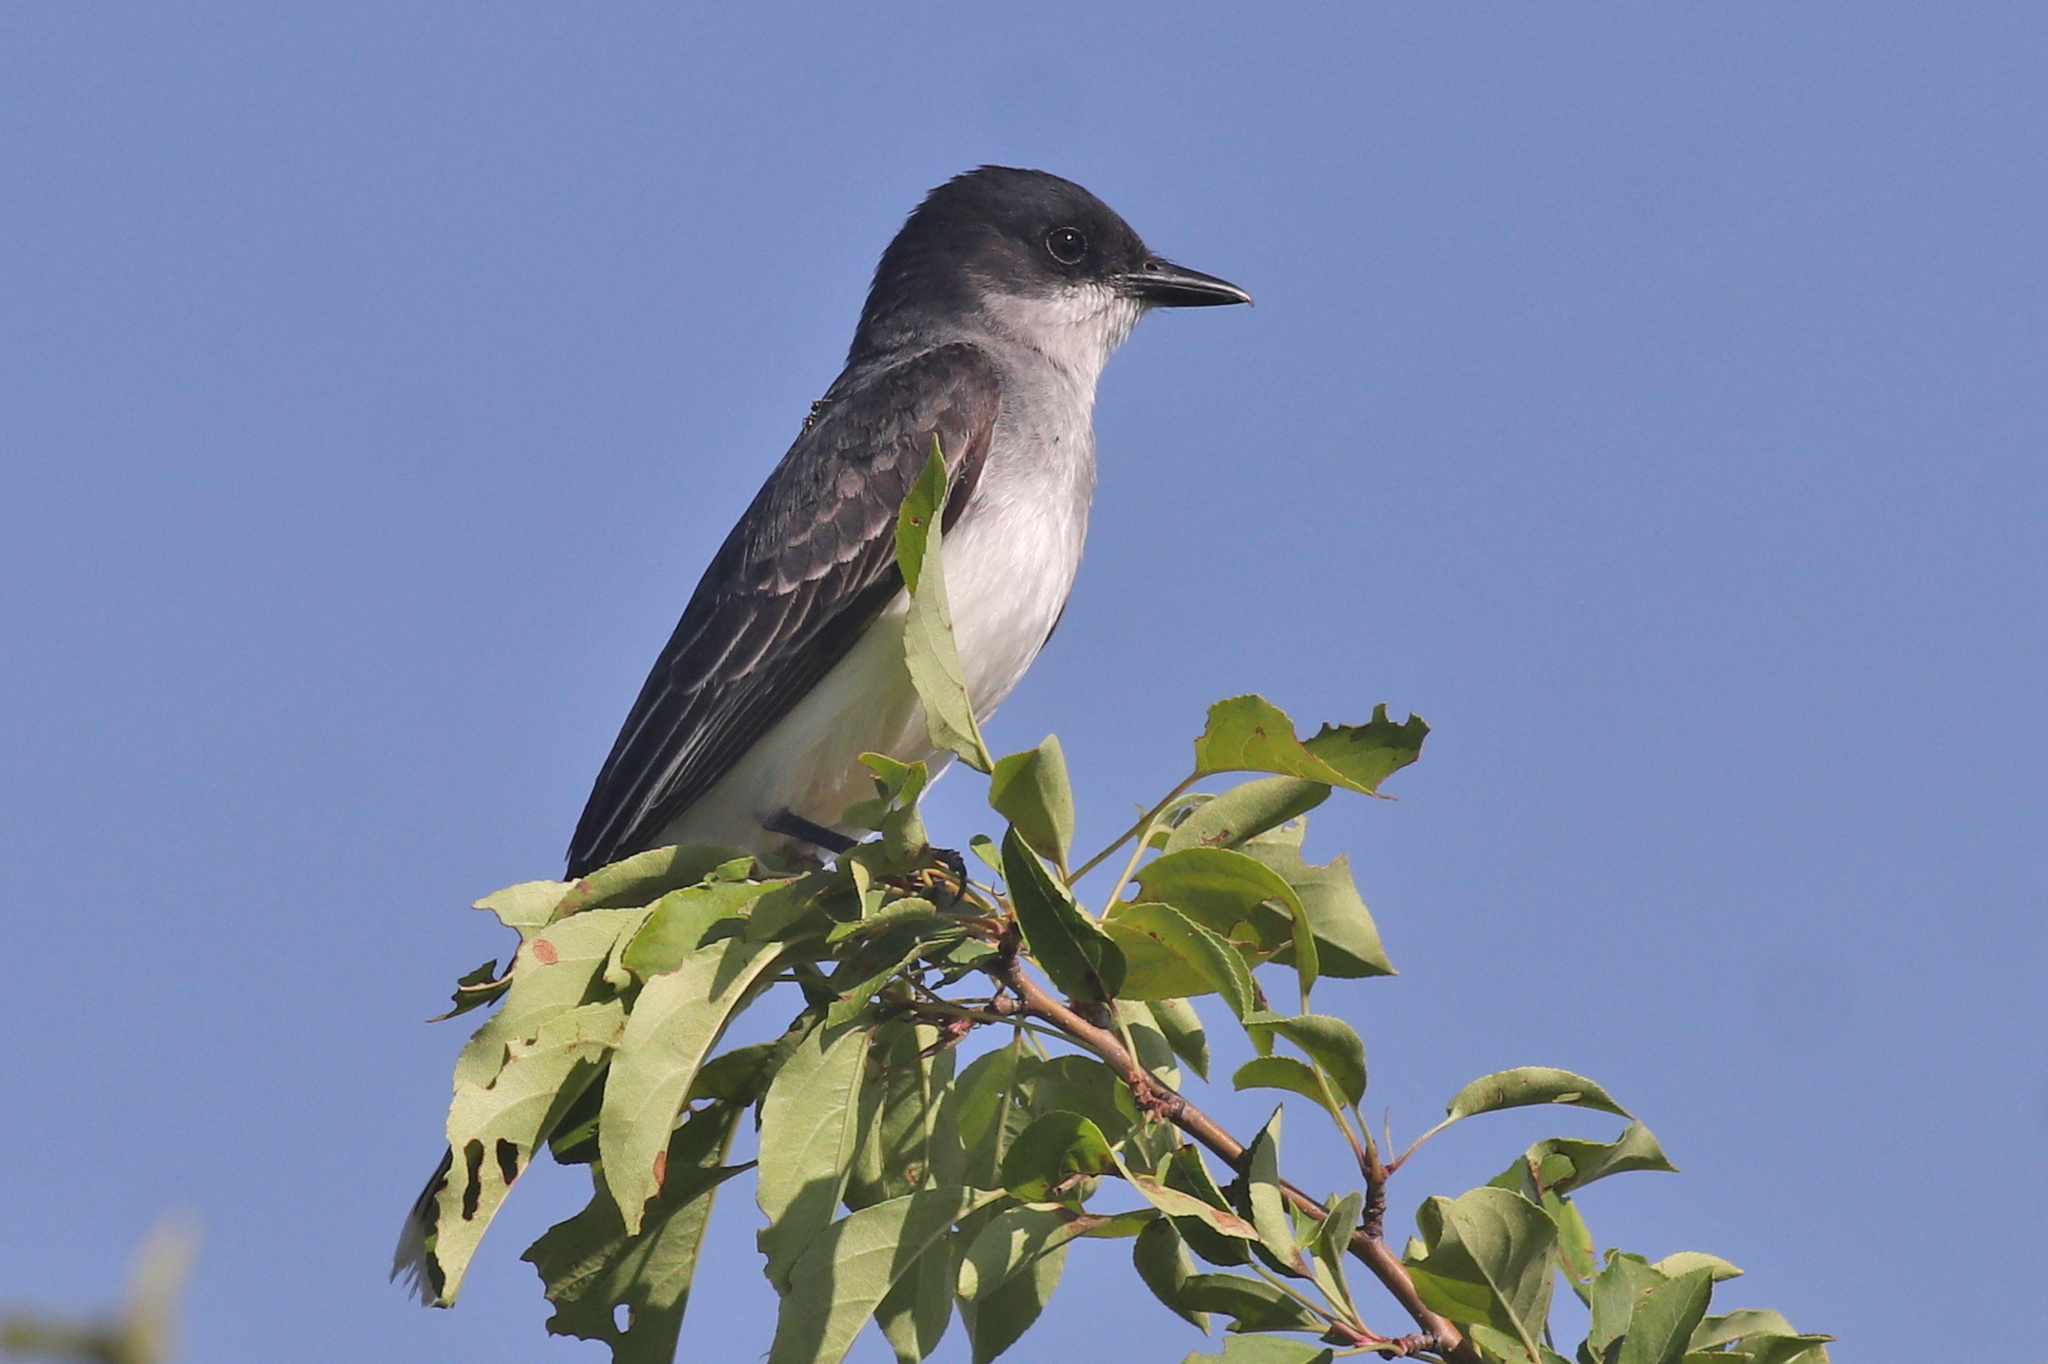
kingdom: Animalia
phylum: Chordata
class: Aves
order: Passeriformes
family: Tyrannidae
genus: Tyrannus
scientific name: Tyrannus tyrannus
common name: Eastern kingbird
